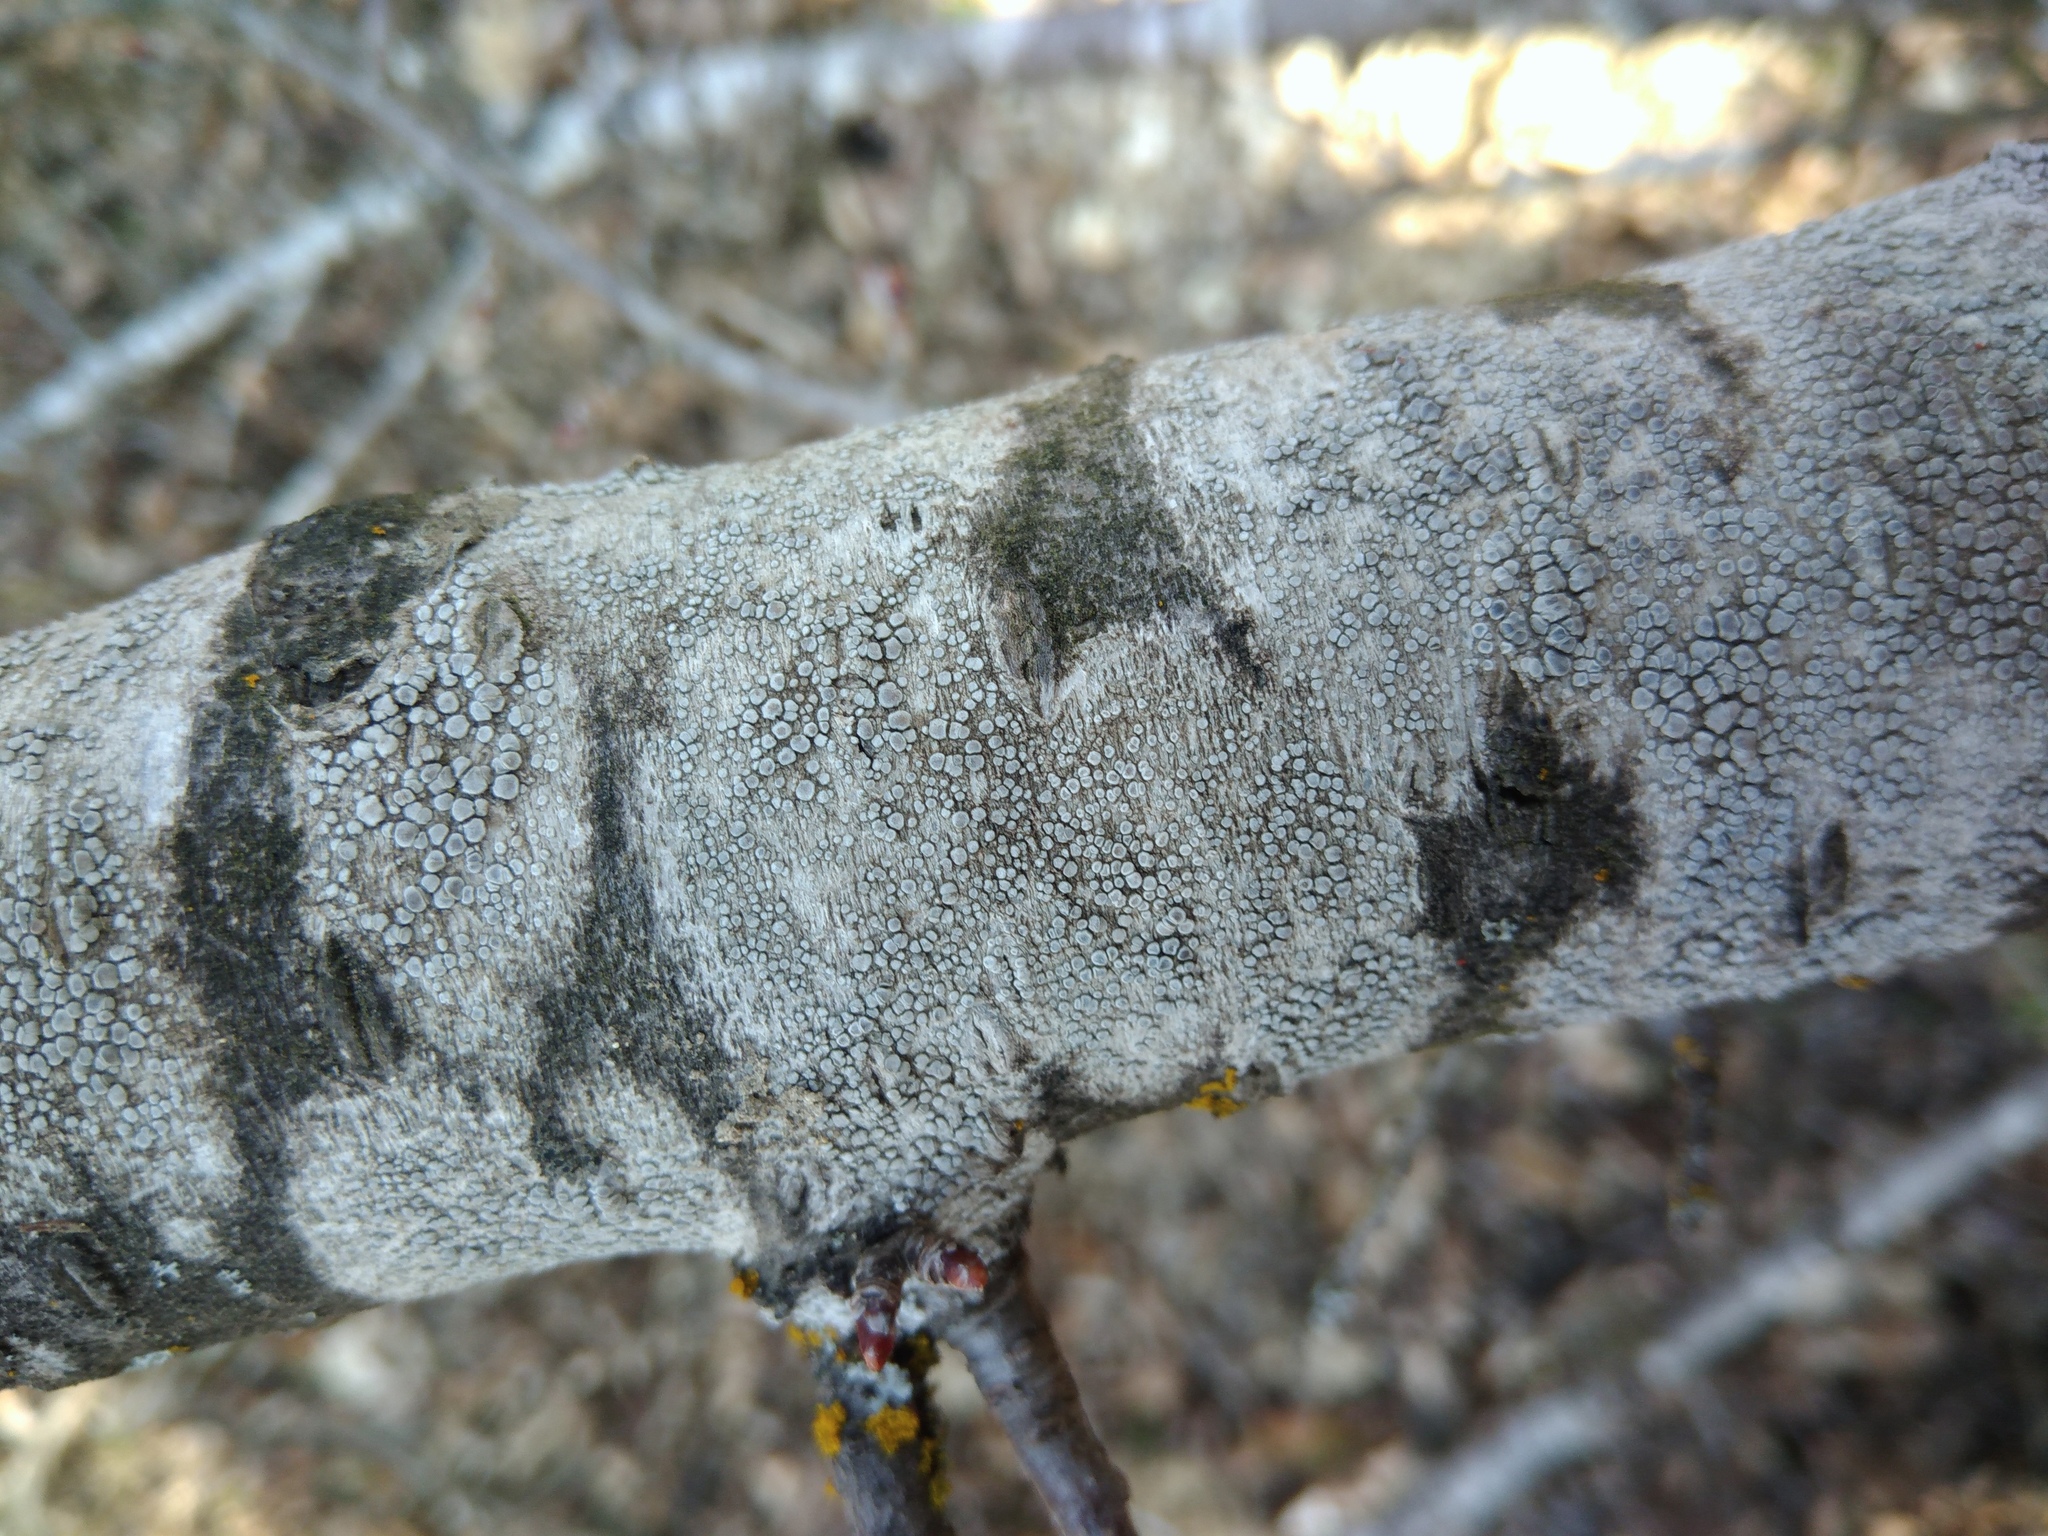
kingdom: Fungi
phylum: Ascomycota
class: Lecanoromycetes
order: Lecanorales
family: Lecanoraceae
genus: Glaucomaria
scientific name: Glaucomaria carpinea
